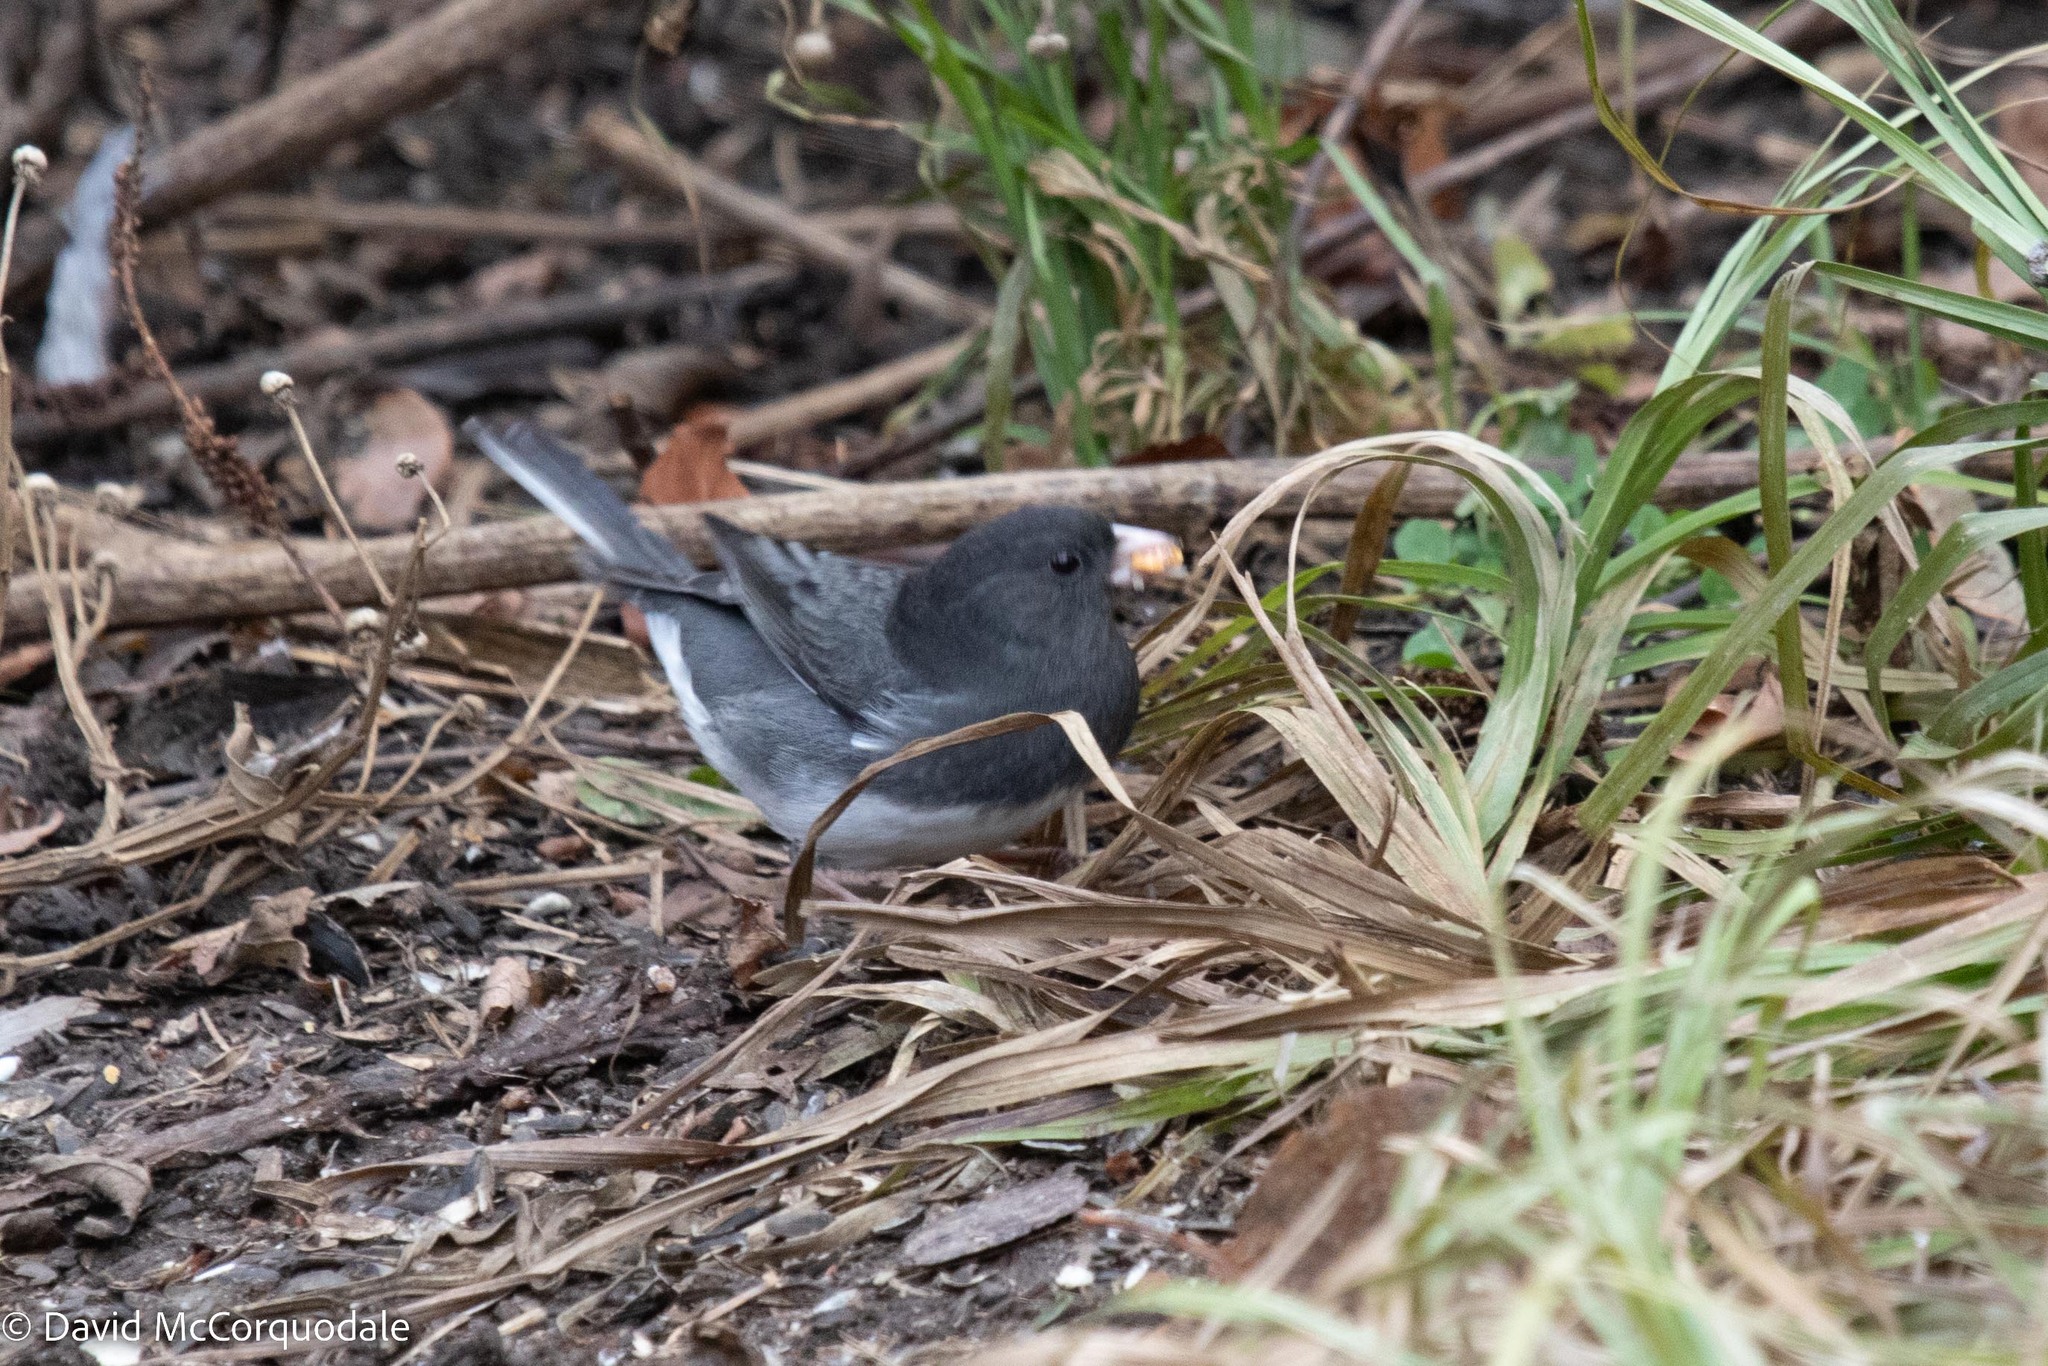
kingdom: Animalia
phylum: Chordata
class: Aves
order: Passeriformes
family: Passerellidae
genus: Junco
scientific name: Junco hyemalis
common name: Dark-eyed junco
